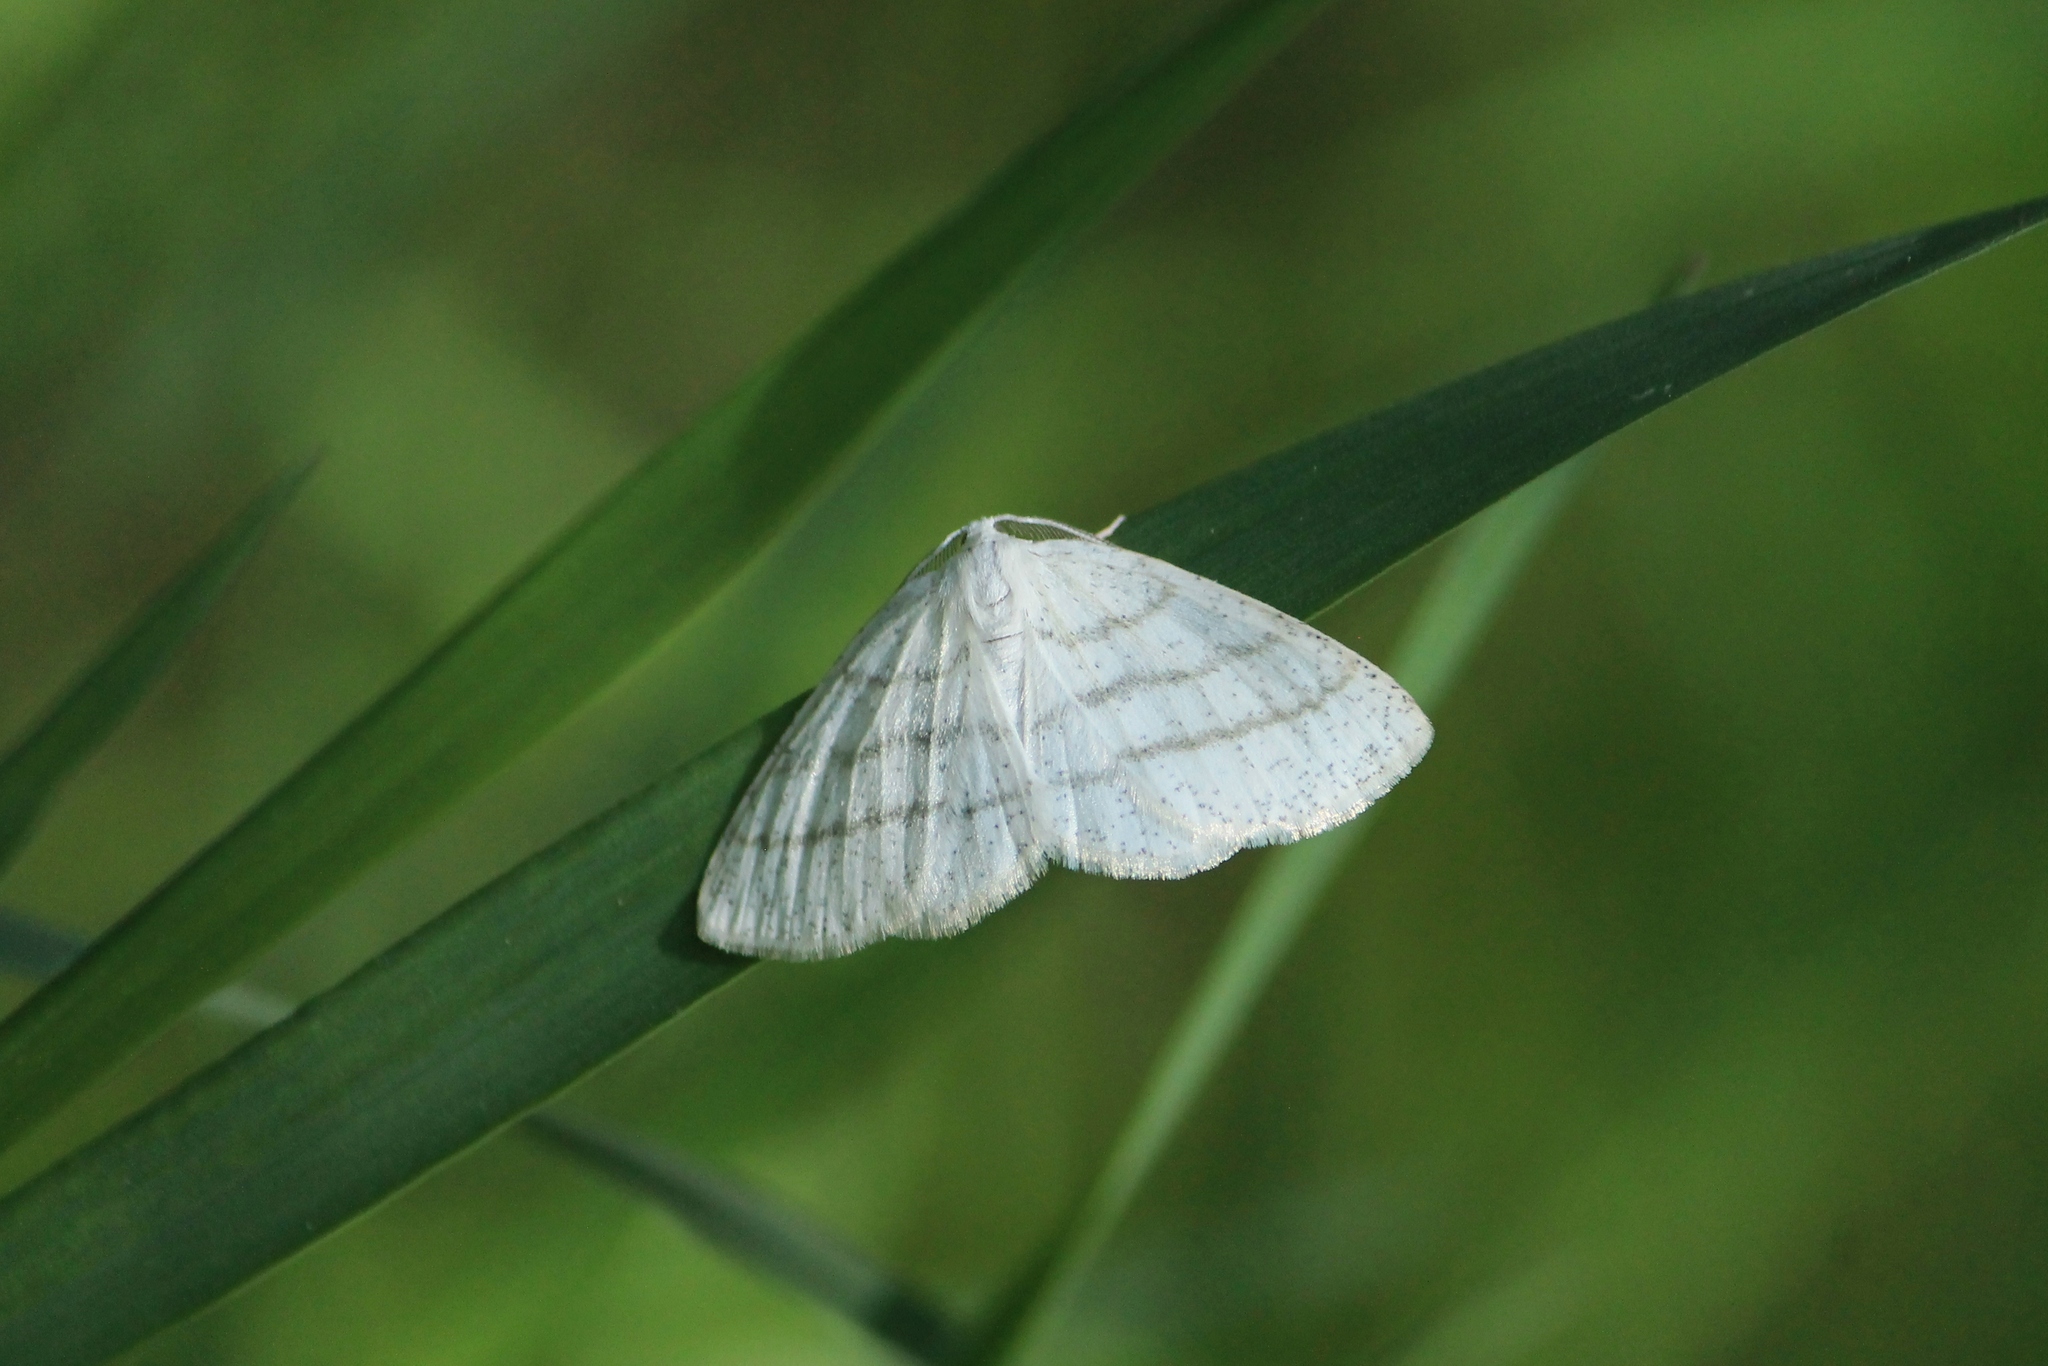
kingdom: Animalia
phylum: Arthropoda
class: Insecta
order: Lepidoptera
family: Geometridae
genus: Cabera
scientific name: Cabera pusaria
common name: Common white wave
